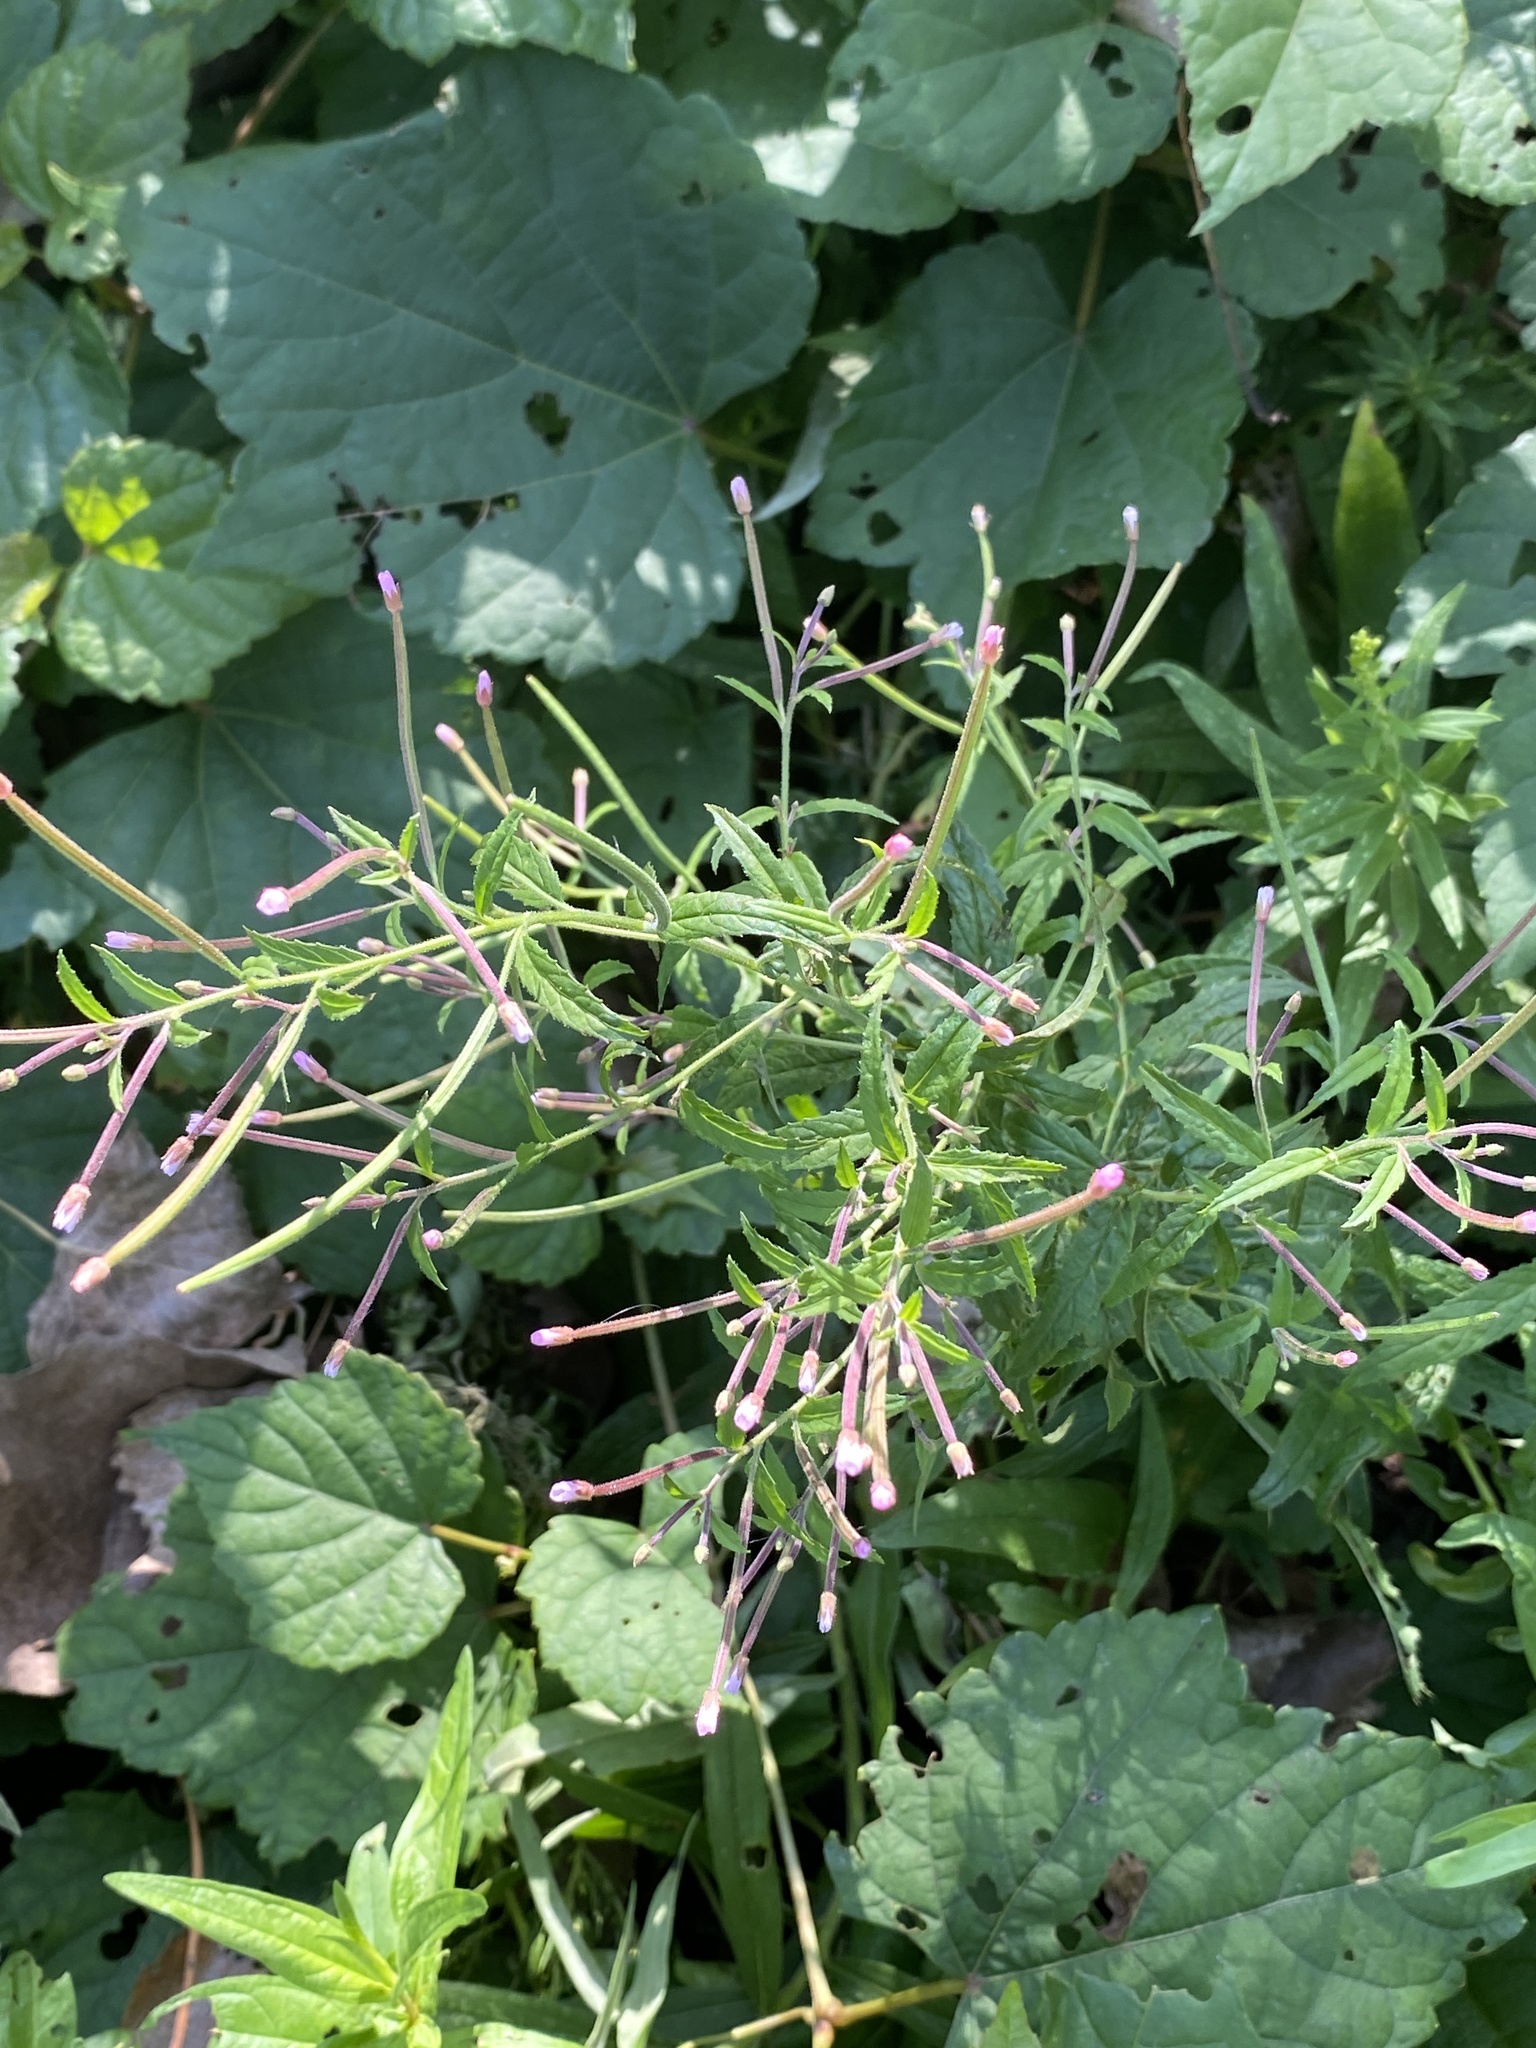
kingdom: Plantae
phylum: Tracheophyta
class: Magnoliopsida
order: Myrtales
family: Onagraceae
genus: Epilobium
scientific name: Epilobium coloratum
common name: Bronze willowherb
